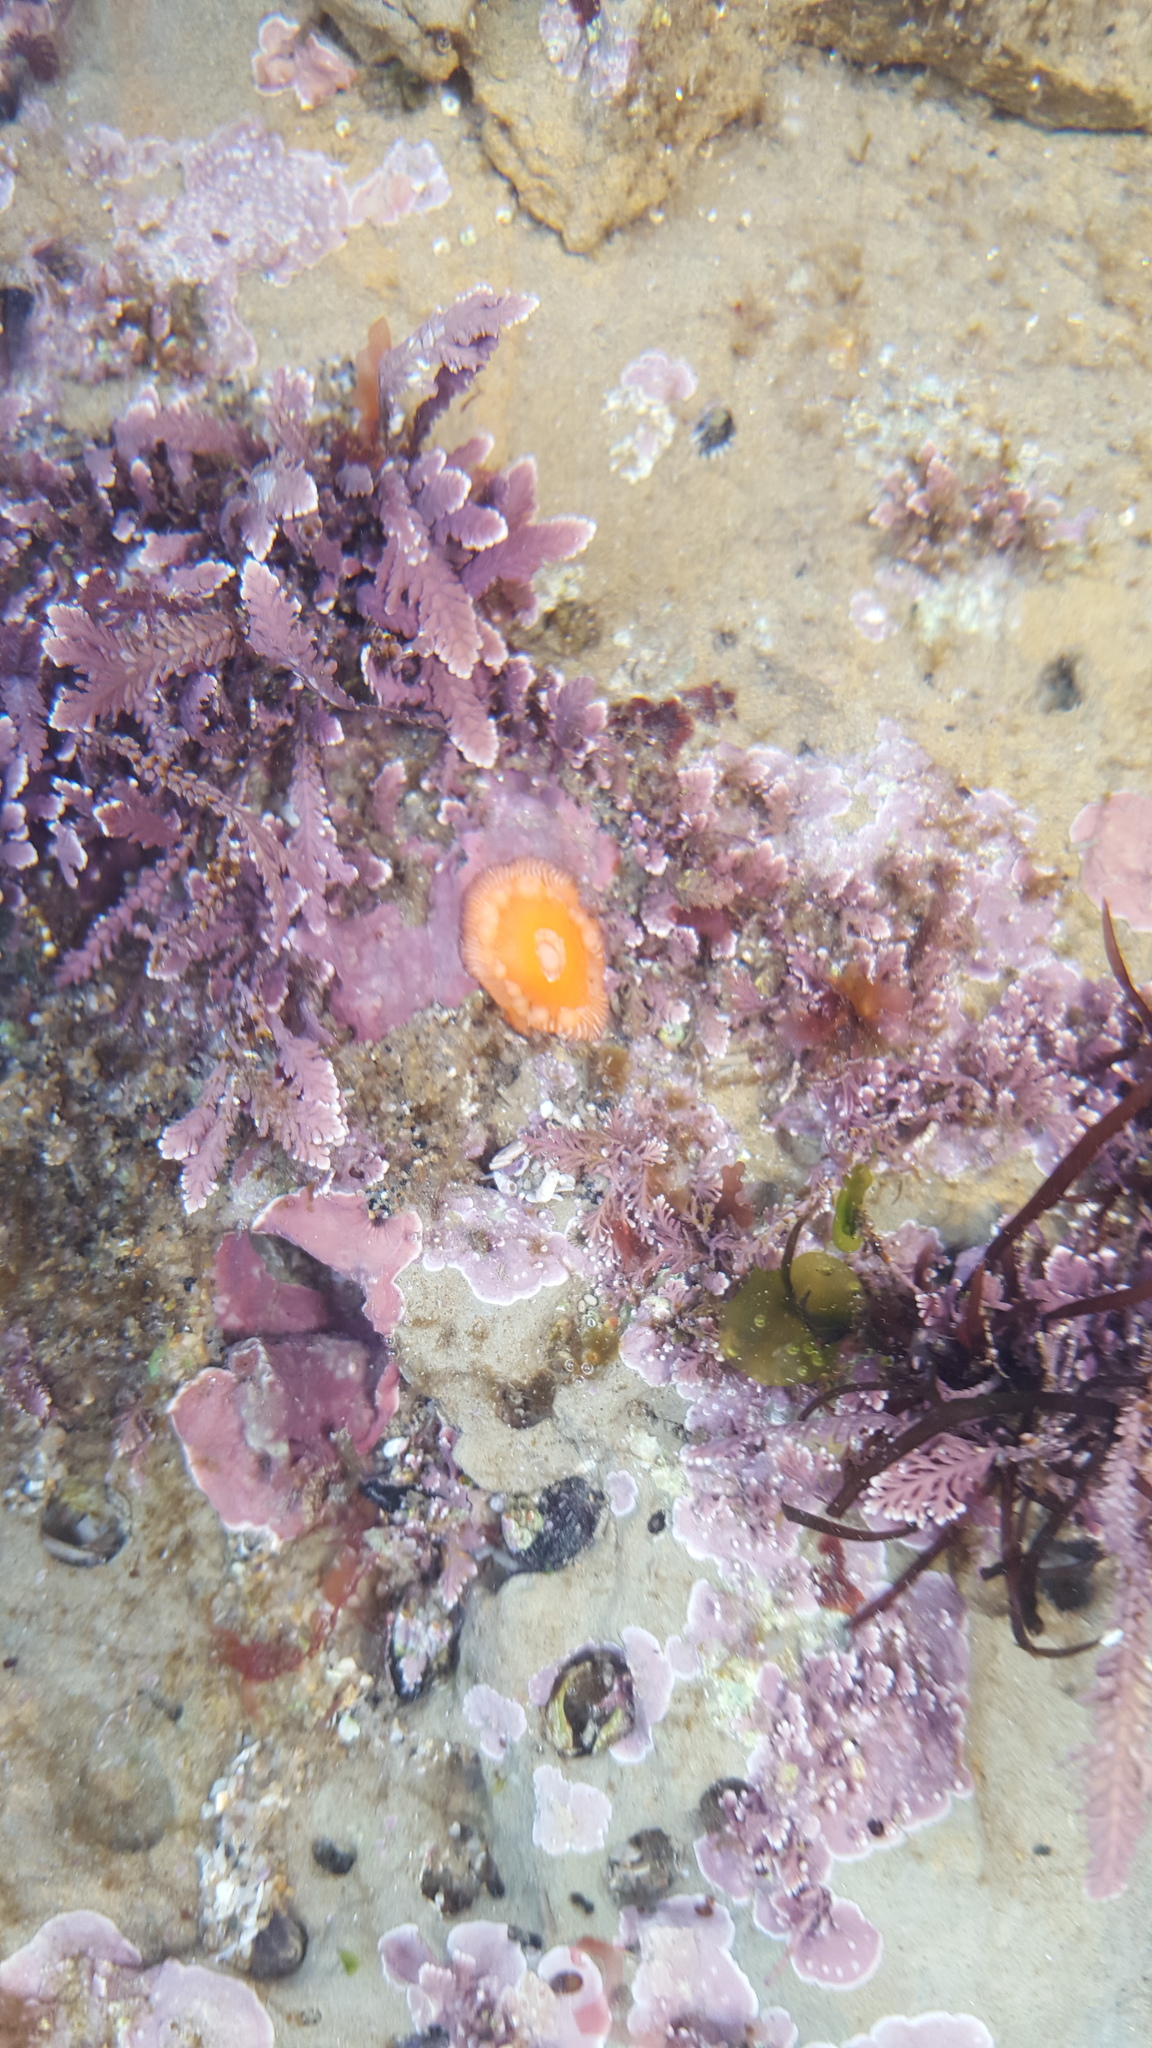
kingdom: Animalia
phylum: Cnidaria
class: Anthozoa
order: Actiniaria
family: Actiniidae
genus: Epiactis
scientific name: Epiactis prolifera
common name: Brooding anemone
